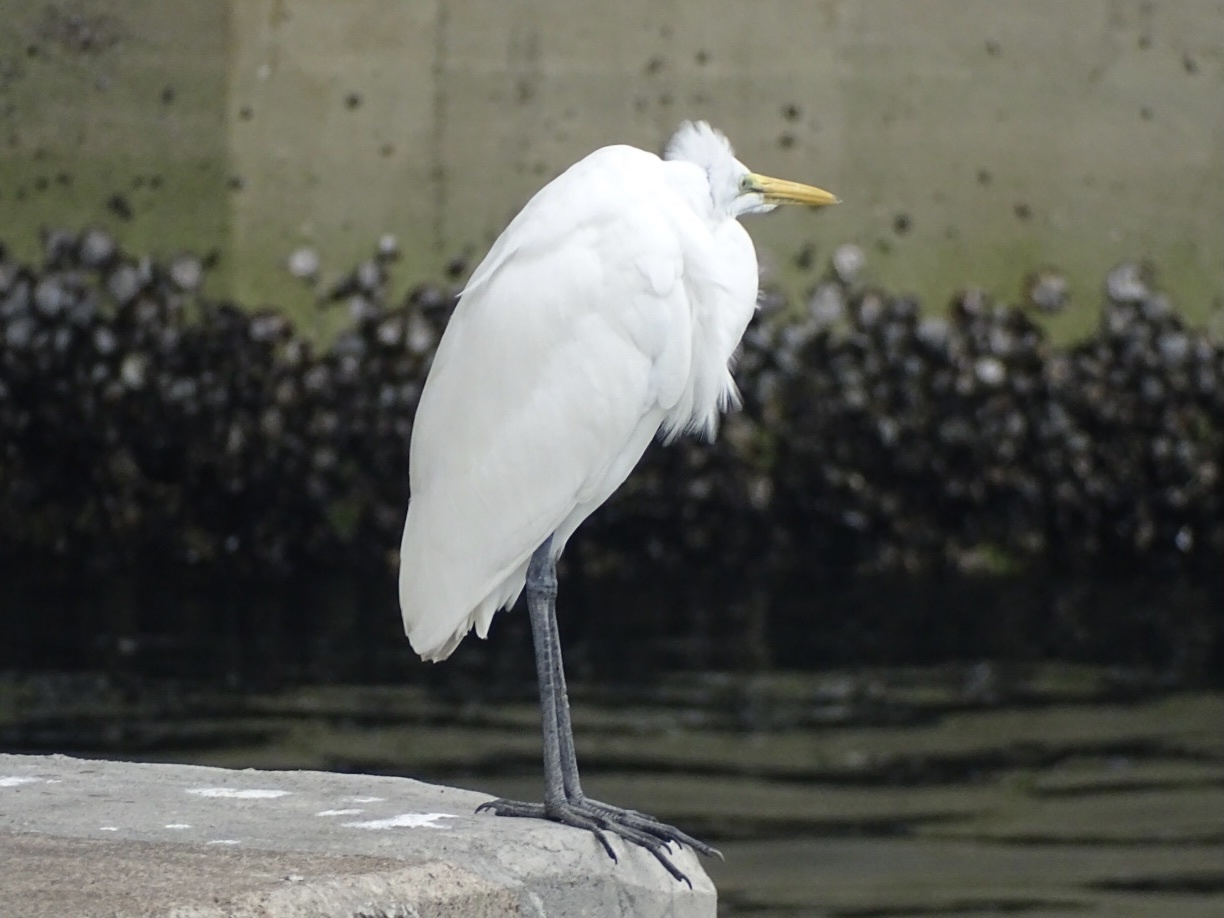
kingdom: Animalia
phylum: Chordata
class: Aves
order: Pelecaniformes
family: Ardeidae
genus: Ardea
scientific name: Ardea alba
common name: Great egret
